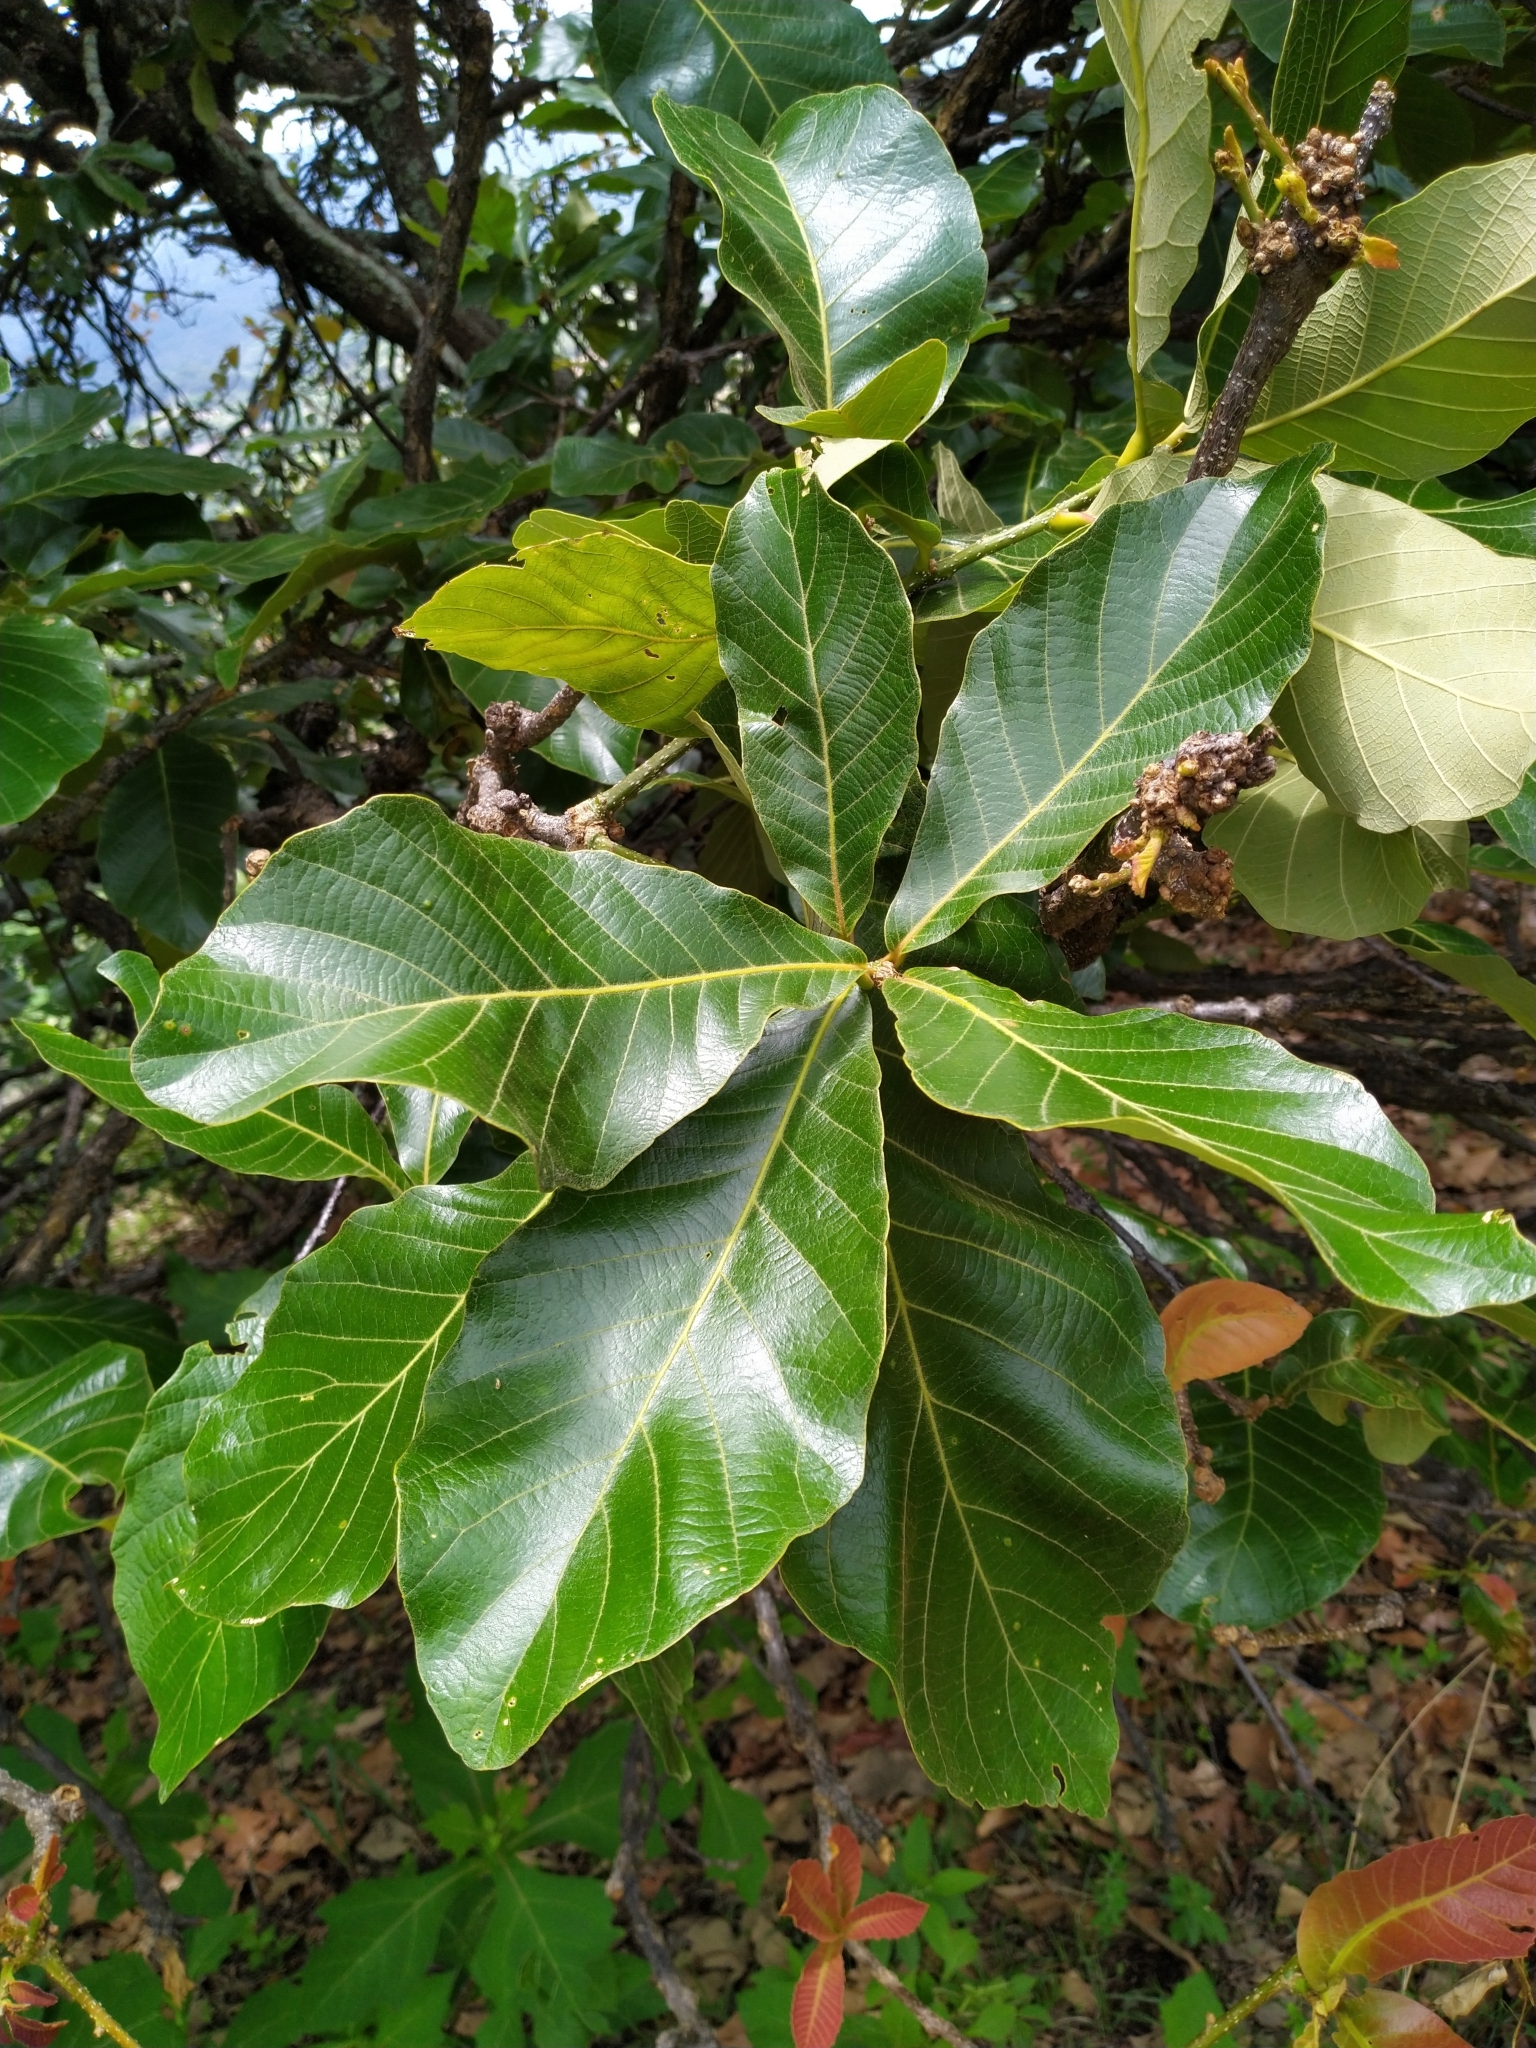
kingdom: Plantae
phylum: Tracheophyta
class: Magnoliopsida
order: Fagales
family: Fagaceae
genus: Quercus
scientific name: Quercus magnoliifolia
